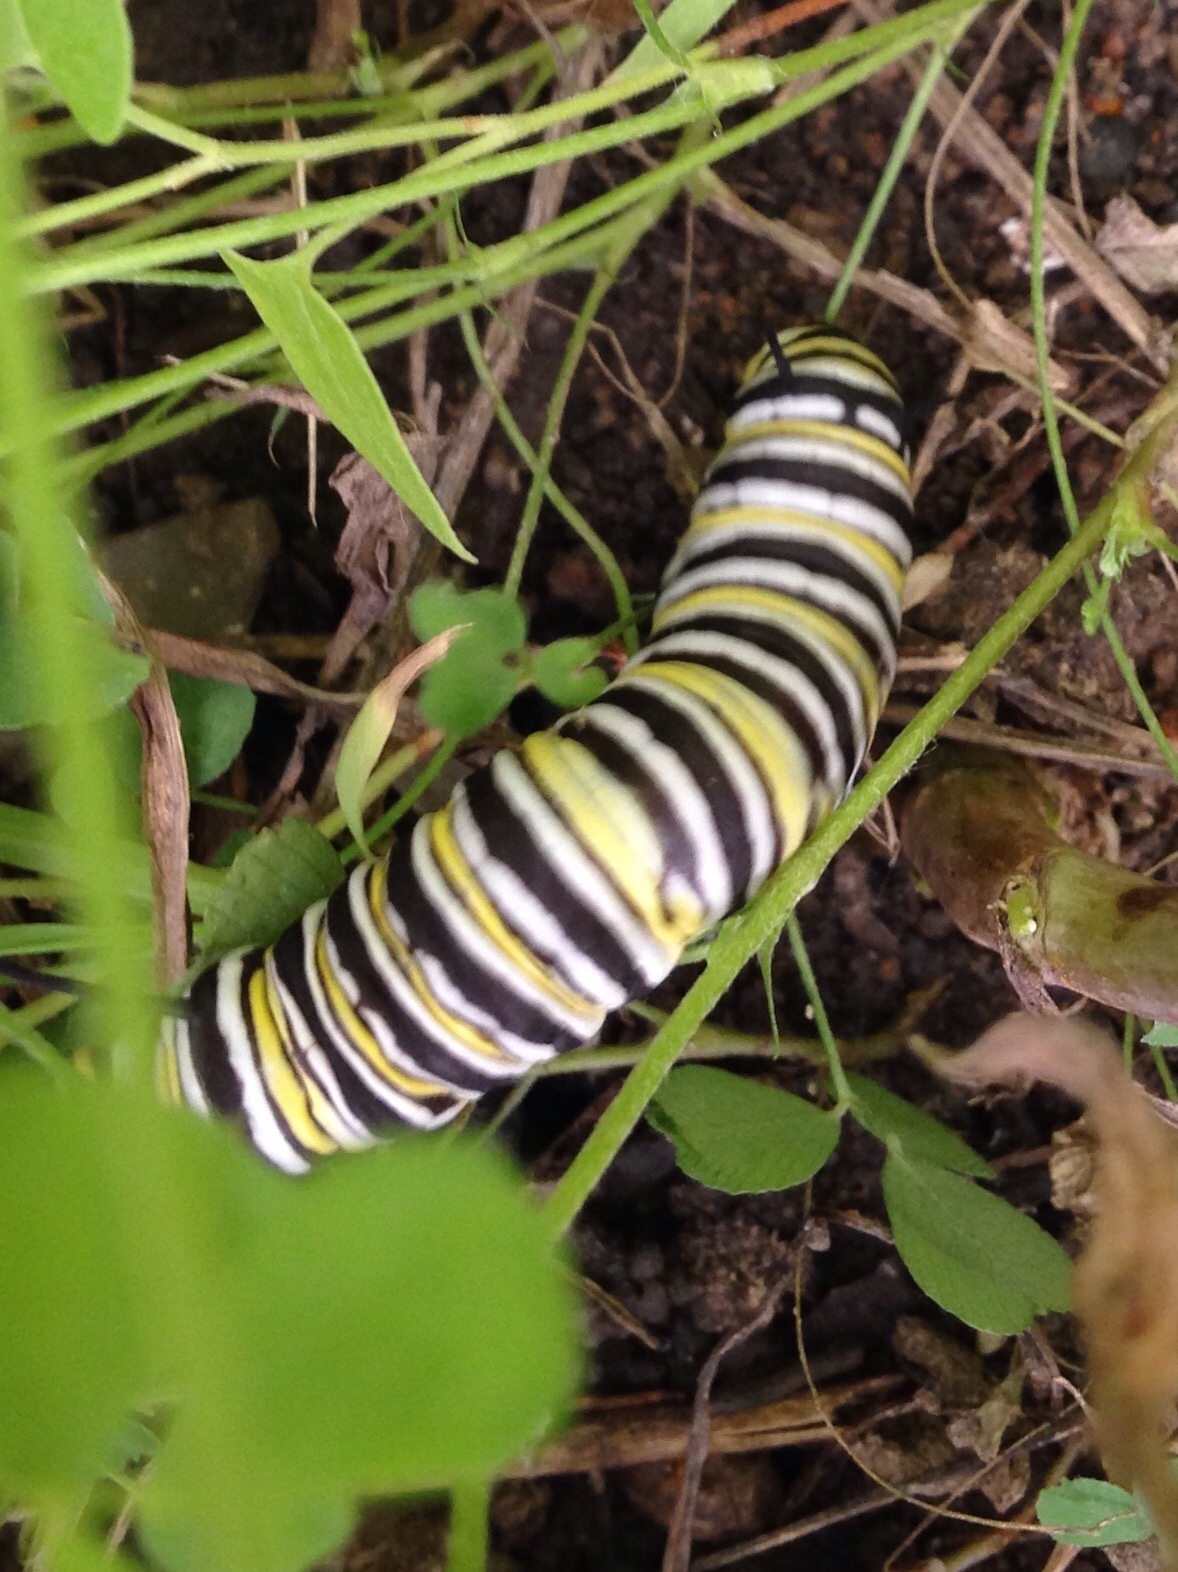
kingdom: Animalia
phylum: Arthropoda
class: Insecta
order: Lepidoptera
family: Nymphalidae
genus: Danaus
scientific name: Danaus plexippus
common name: Monarch
